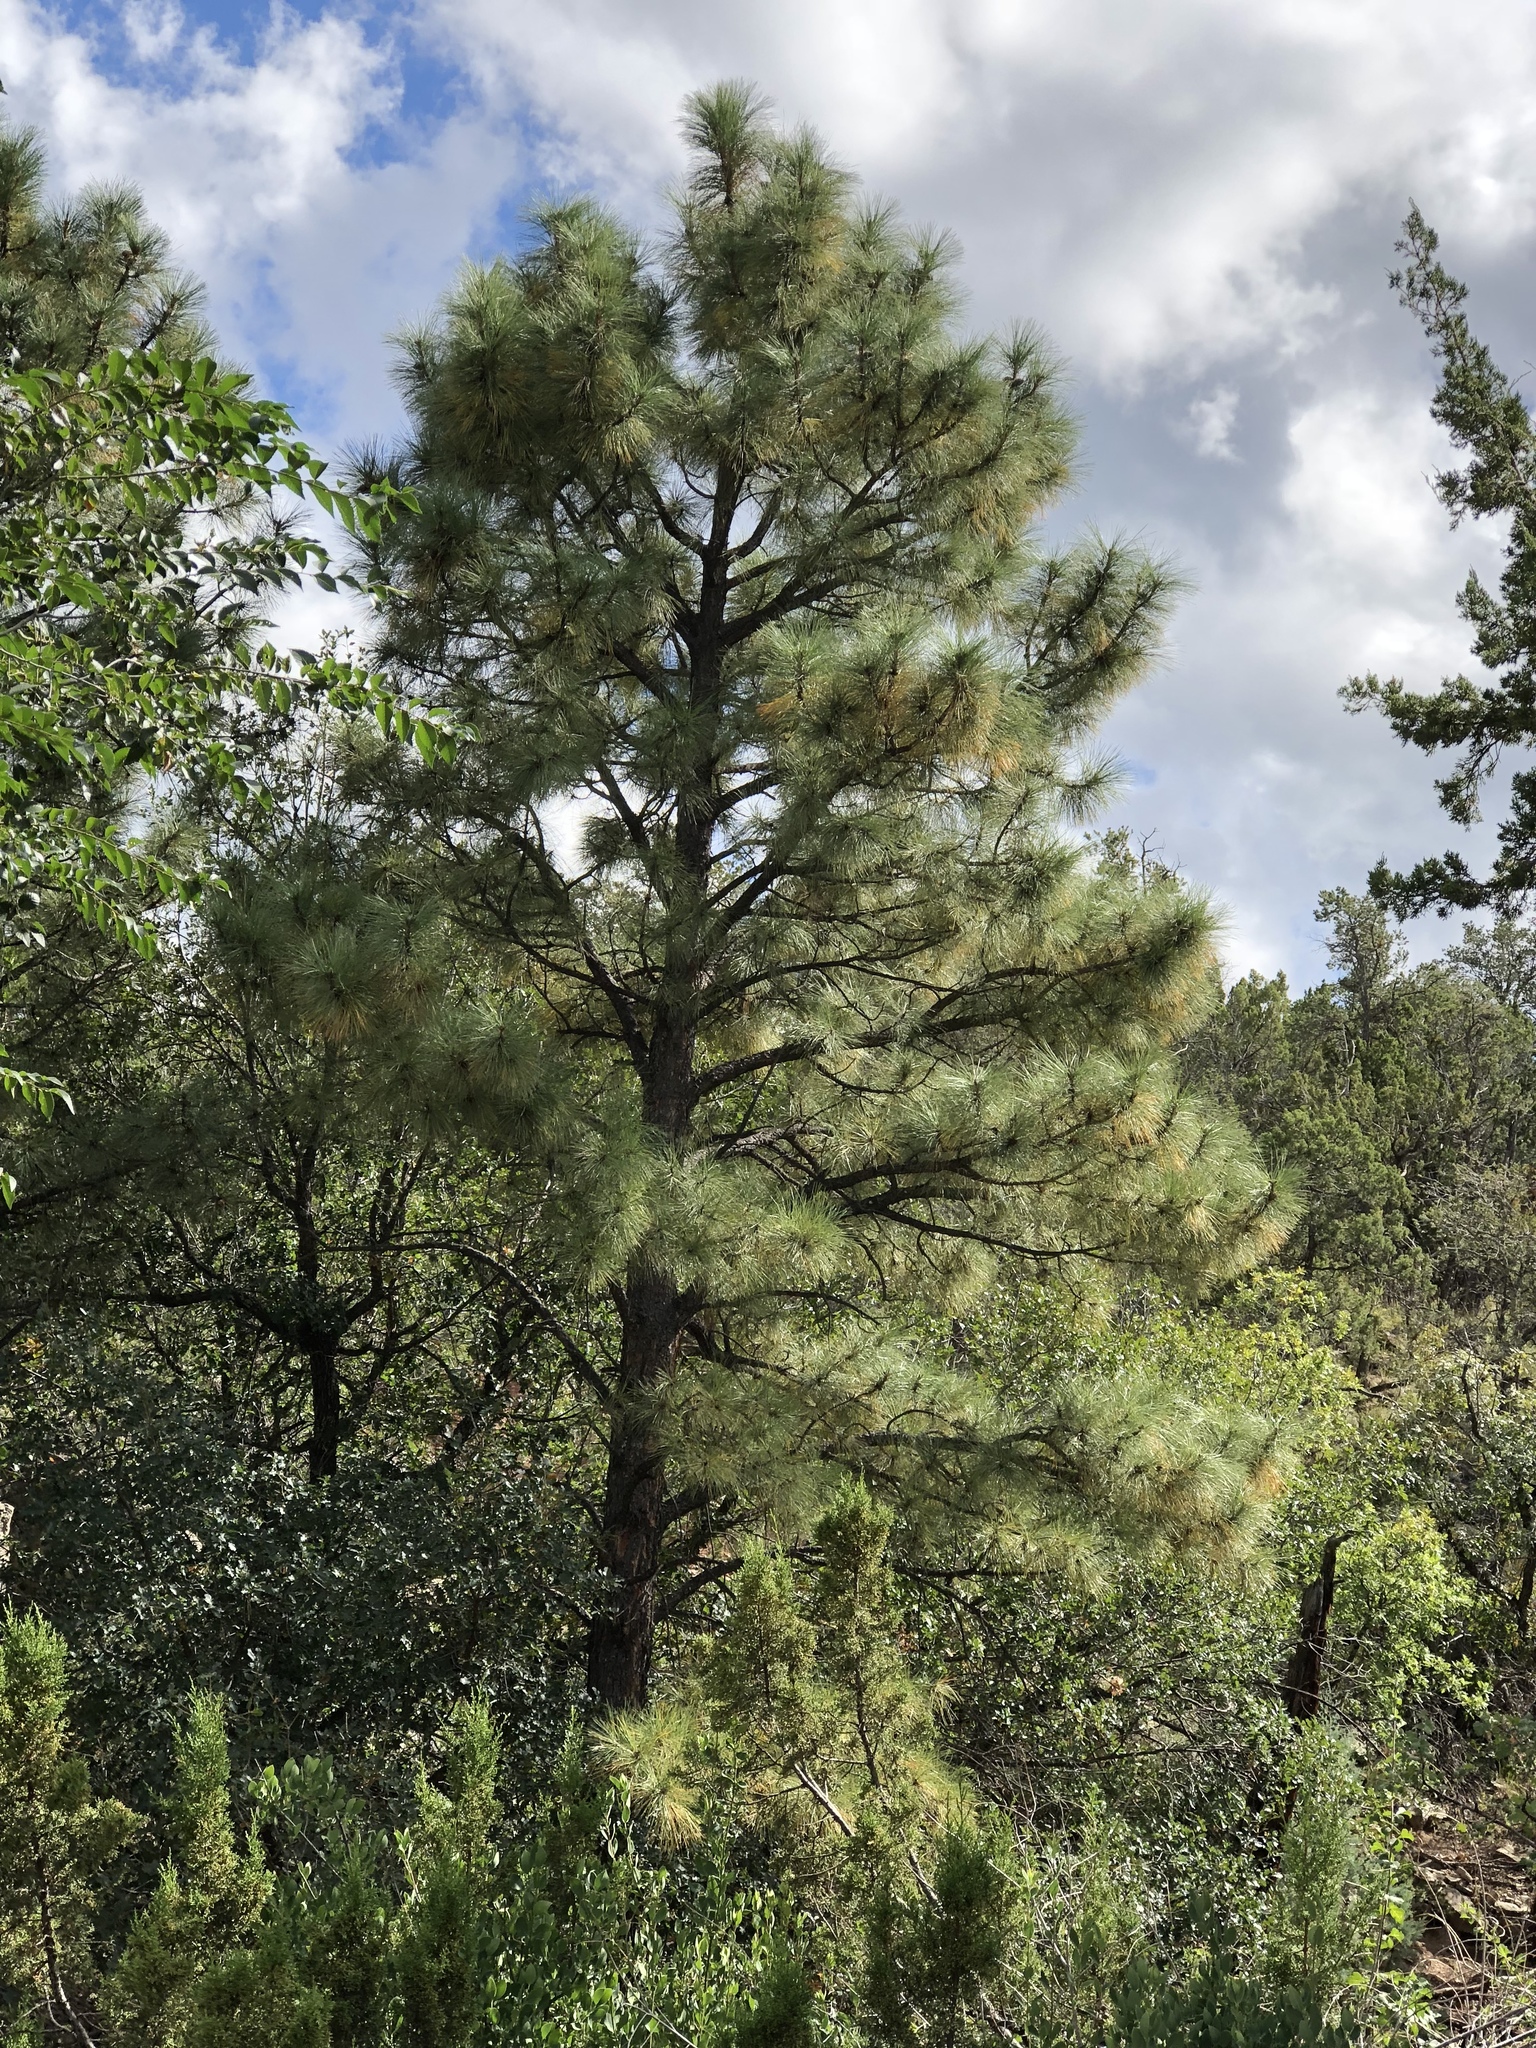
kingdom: Plantae
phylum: Tracheophyta
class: Pinopsida
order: Pinales
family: Pinaceae
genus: Pinus
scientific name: Pinus ponderosa
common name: Western yellow-pine
